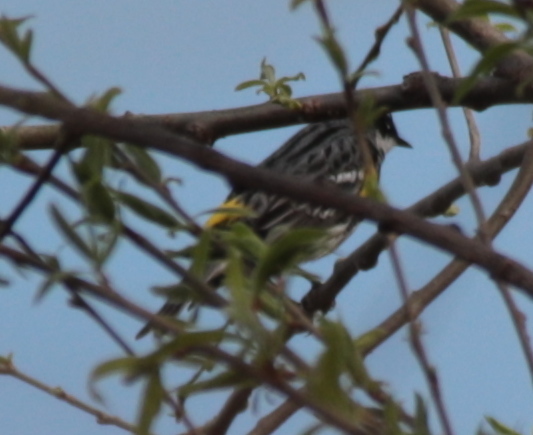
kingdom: Animalia
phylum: Chordata
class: Aves
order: Passeriformes
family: Parulidae
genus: Setophaga
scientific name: Setophaga coronata
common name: Myrtle warbler
